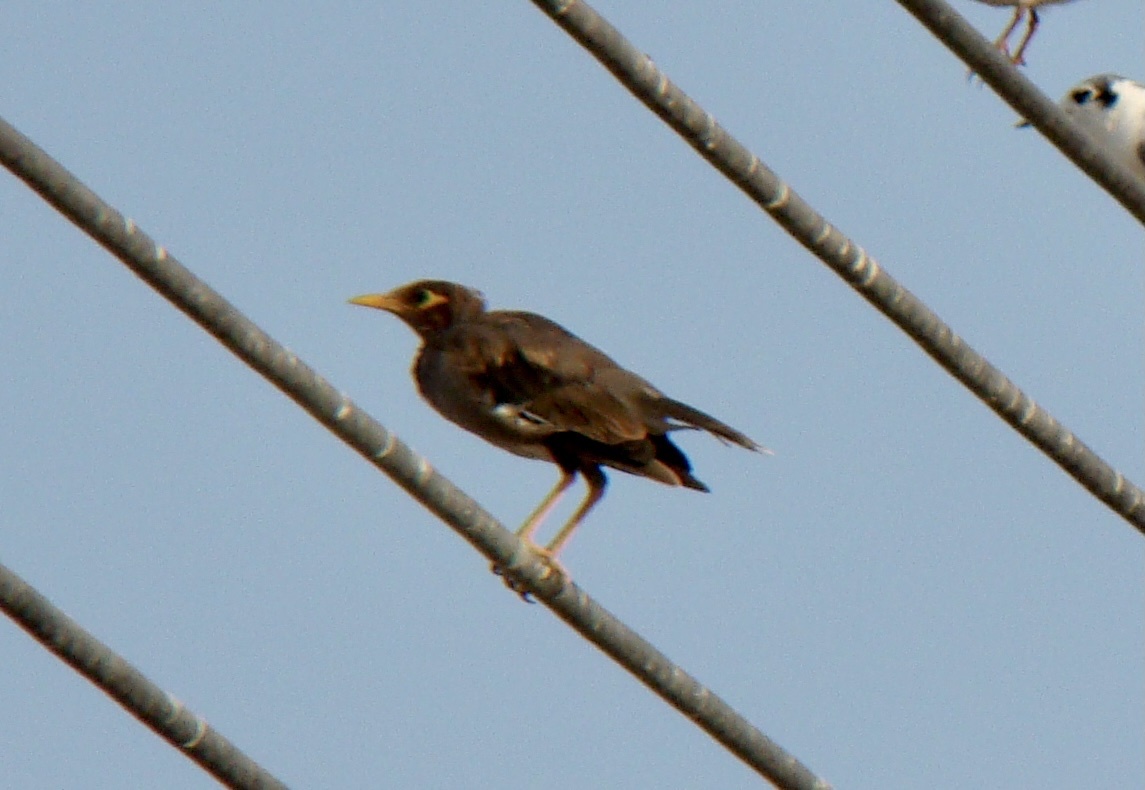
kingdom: Animalia
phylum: Chordata
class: Aves
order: Passeriformes
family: Sturnidae
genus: Acridotheres
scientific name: Acridotheres tristis
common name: Common myna
